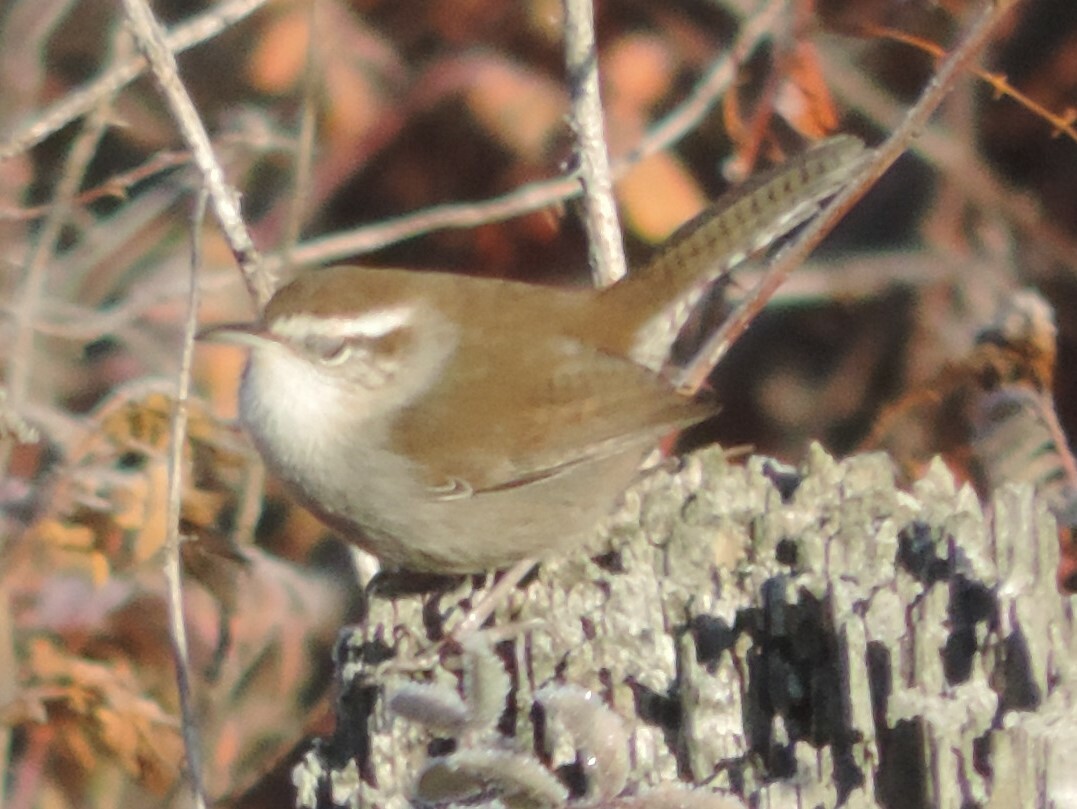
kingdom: Animalia
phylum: Chordata
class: Aves
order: Passeriformes
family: Troglodytidae
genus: Thryomanes
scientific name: Thryomanes bewickii
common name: Bewick's wren
